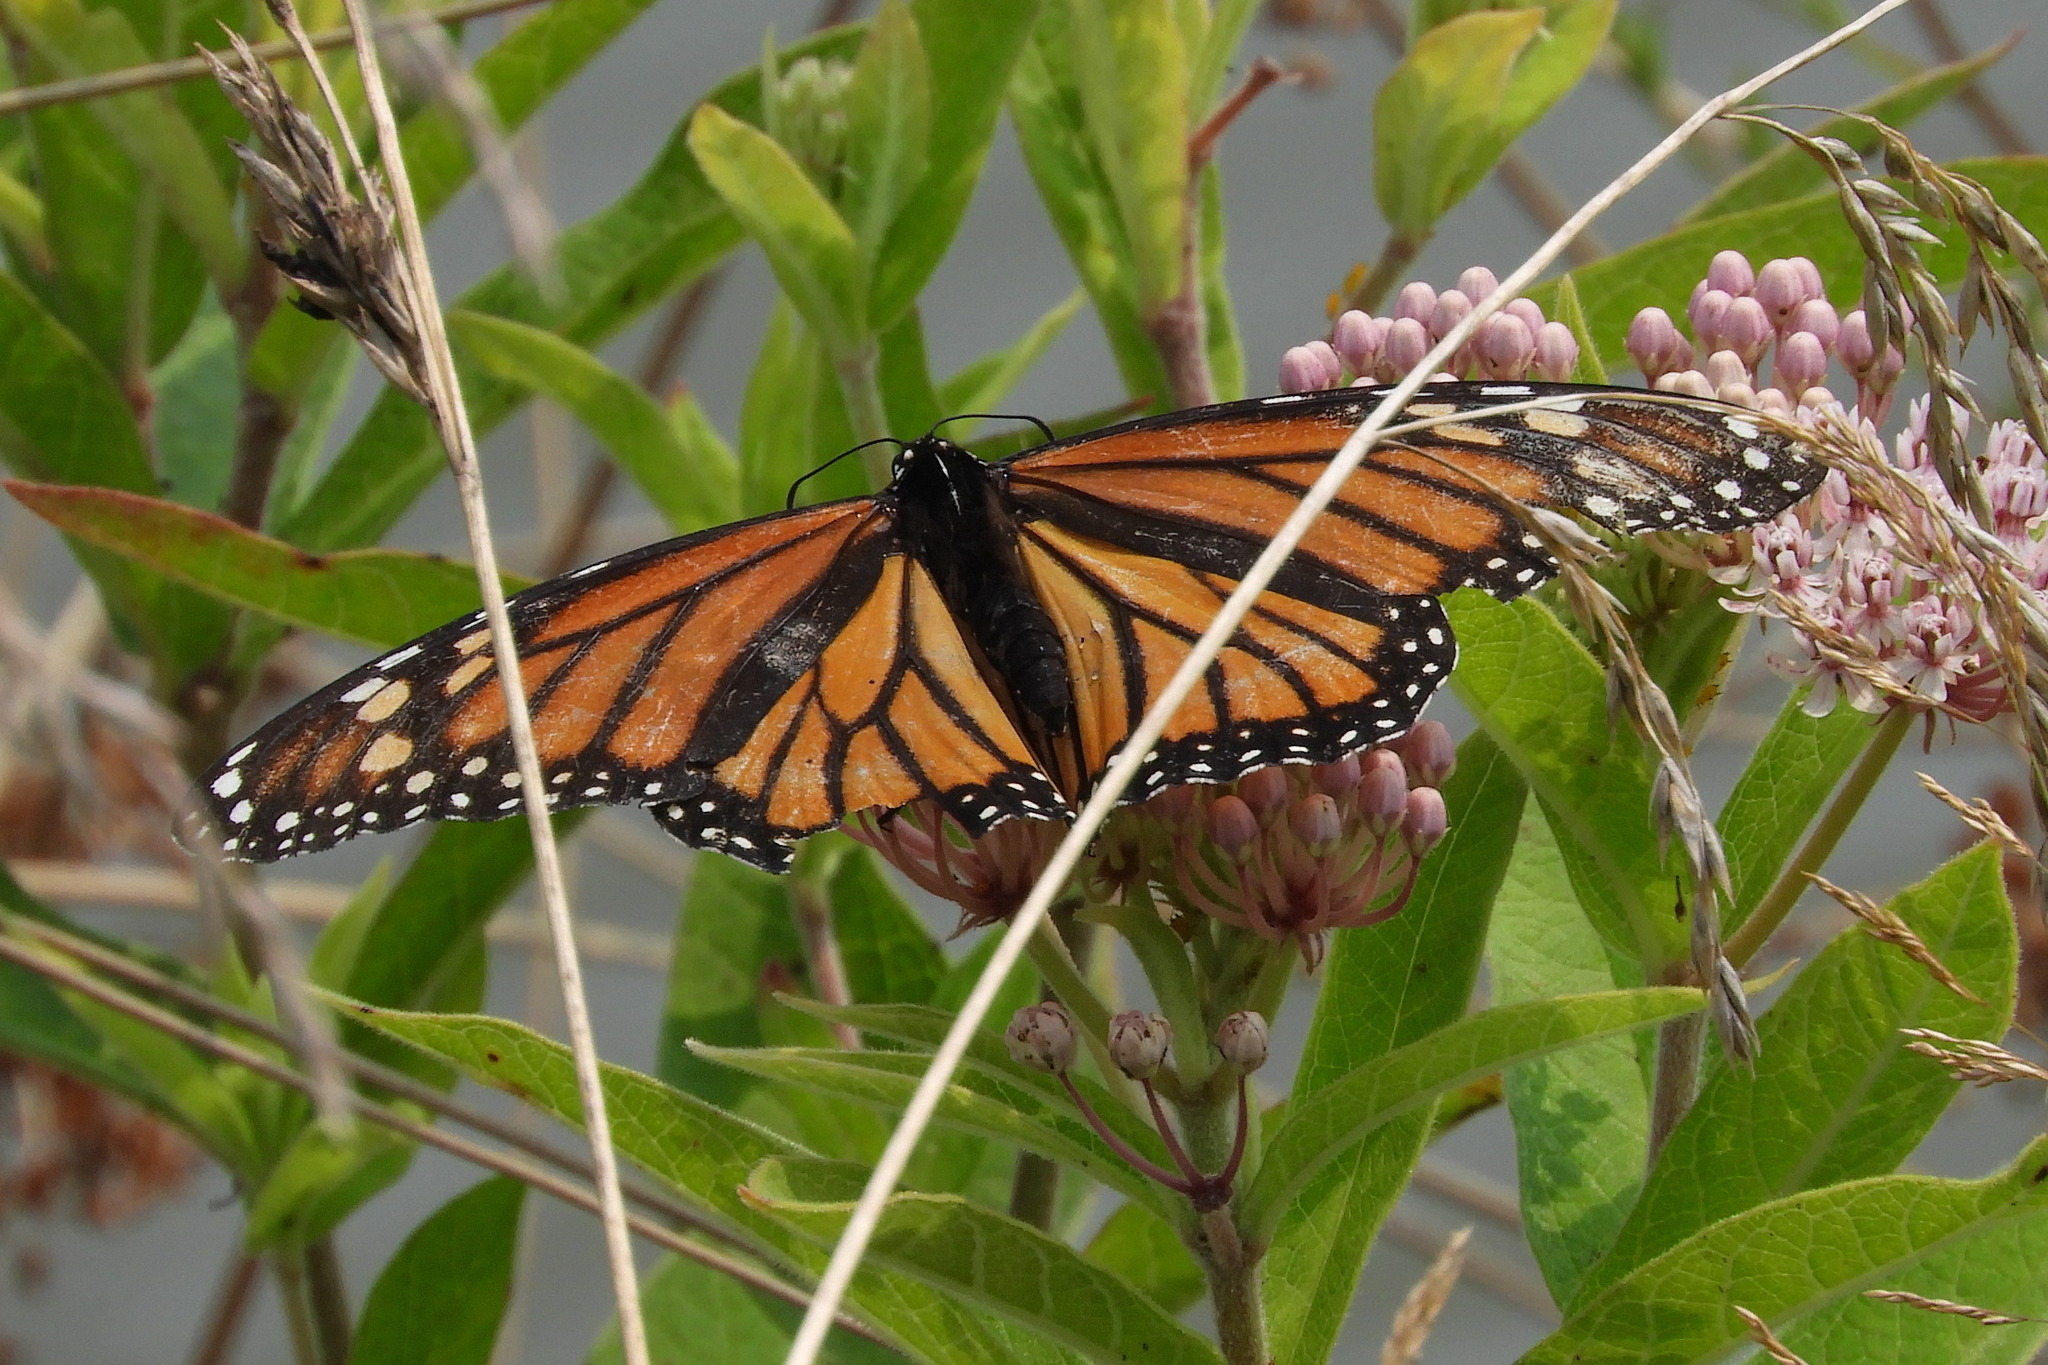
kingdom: Animalia
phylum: Arthropoda
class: Insecta
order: Lepidoptera
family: Nymphalidae
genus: Danaus
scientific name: Danaus plexippus
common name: Monarch
